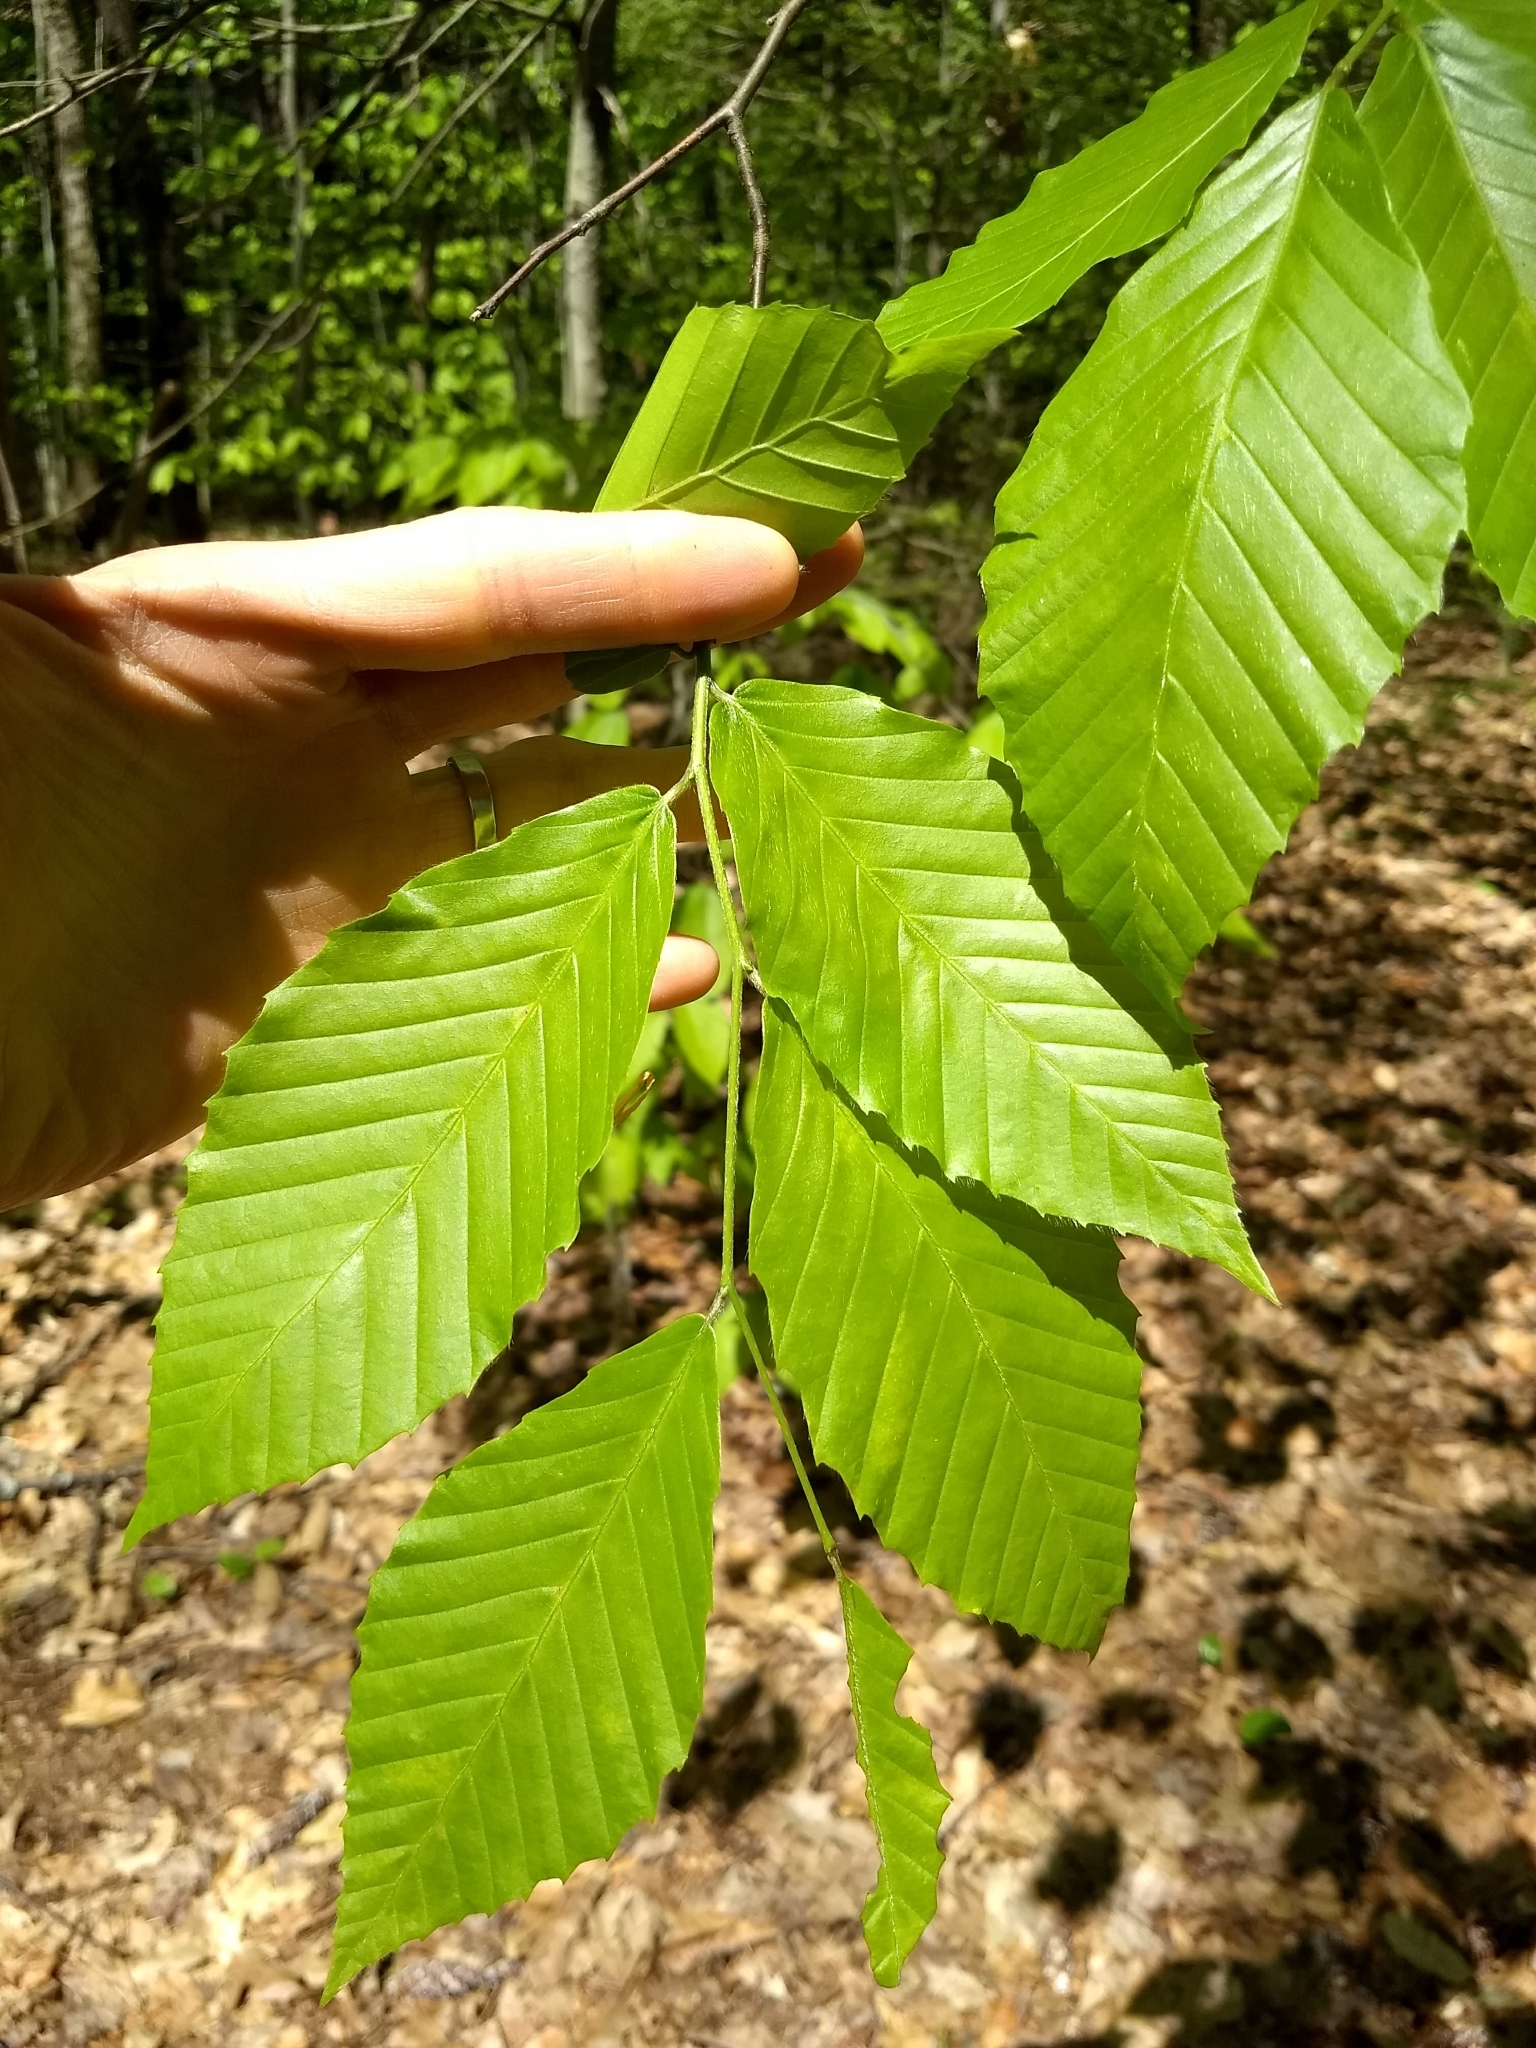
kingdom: Plantae
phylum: Tracheophyta
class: Magnoliopsida
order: Fagales
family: Fagaceae
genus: Fagus
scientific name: Fagus grandifolia
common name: American beech
